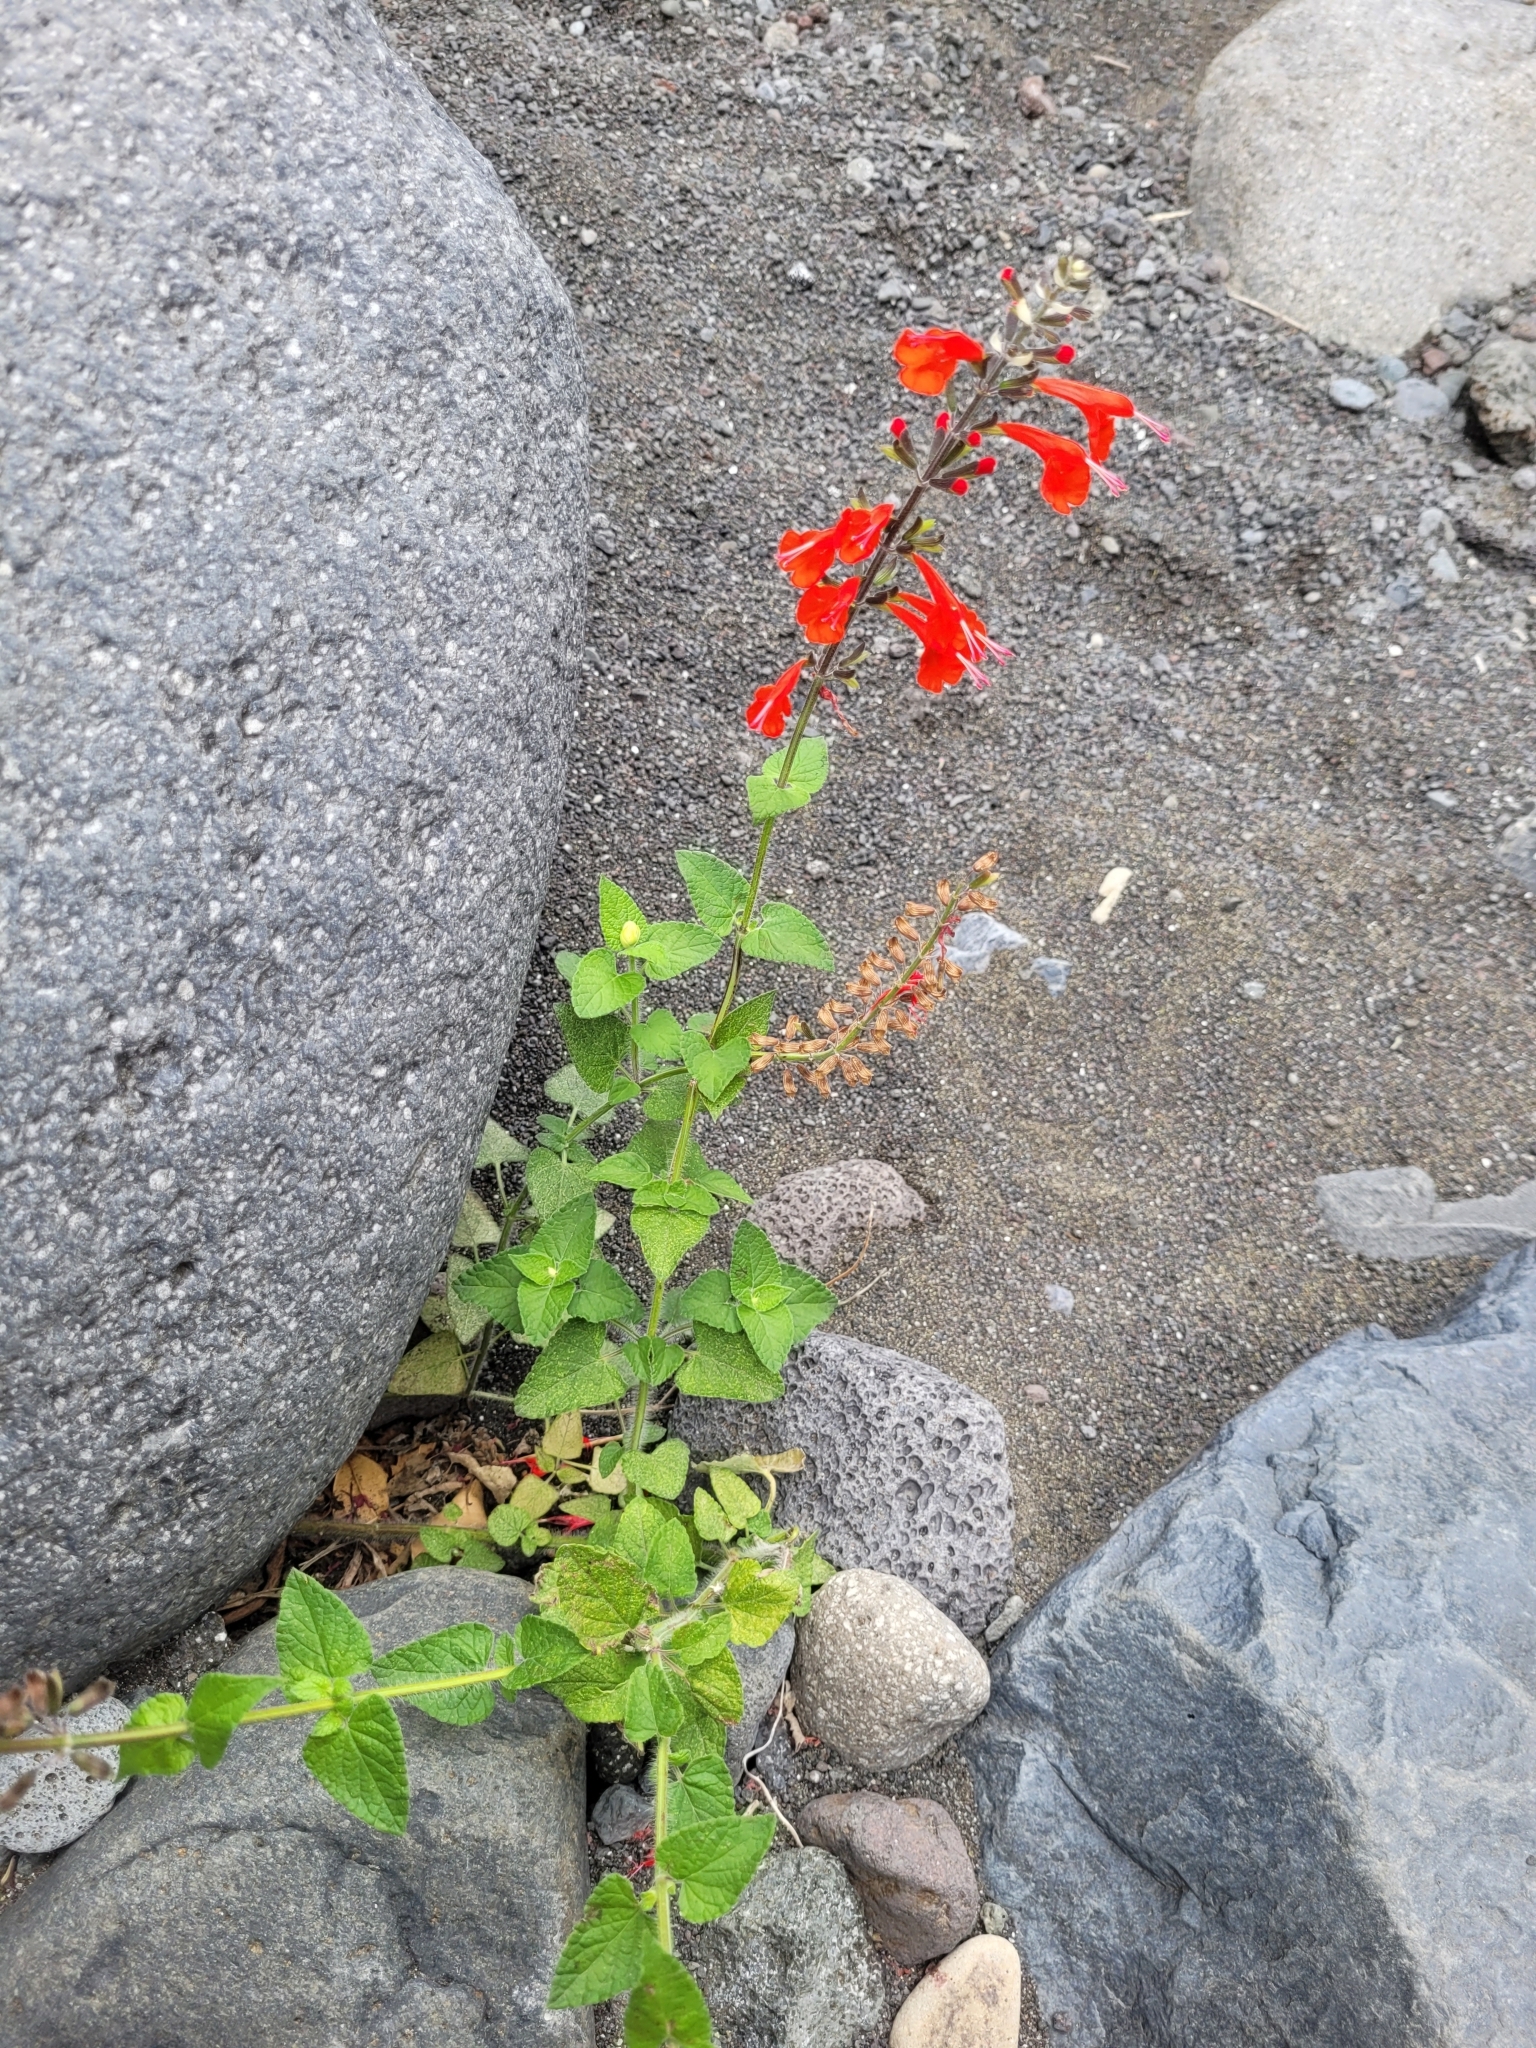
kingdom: Plantae
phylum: Tracheophyta
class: Magnoliopsida
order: Lamiales
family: Lamiaceae
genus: Salvia
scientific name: Salvia coccinea
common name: Blood sage
